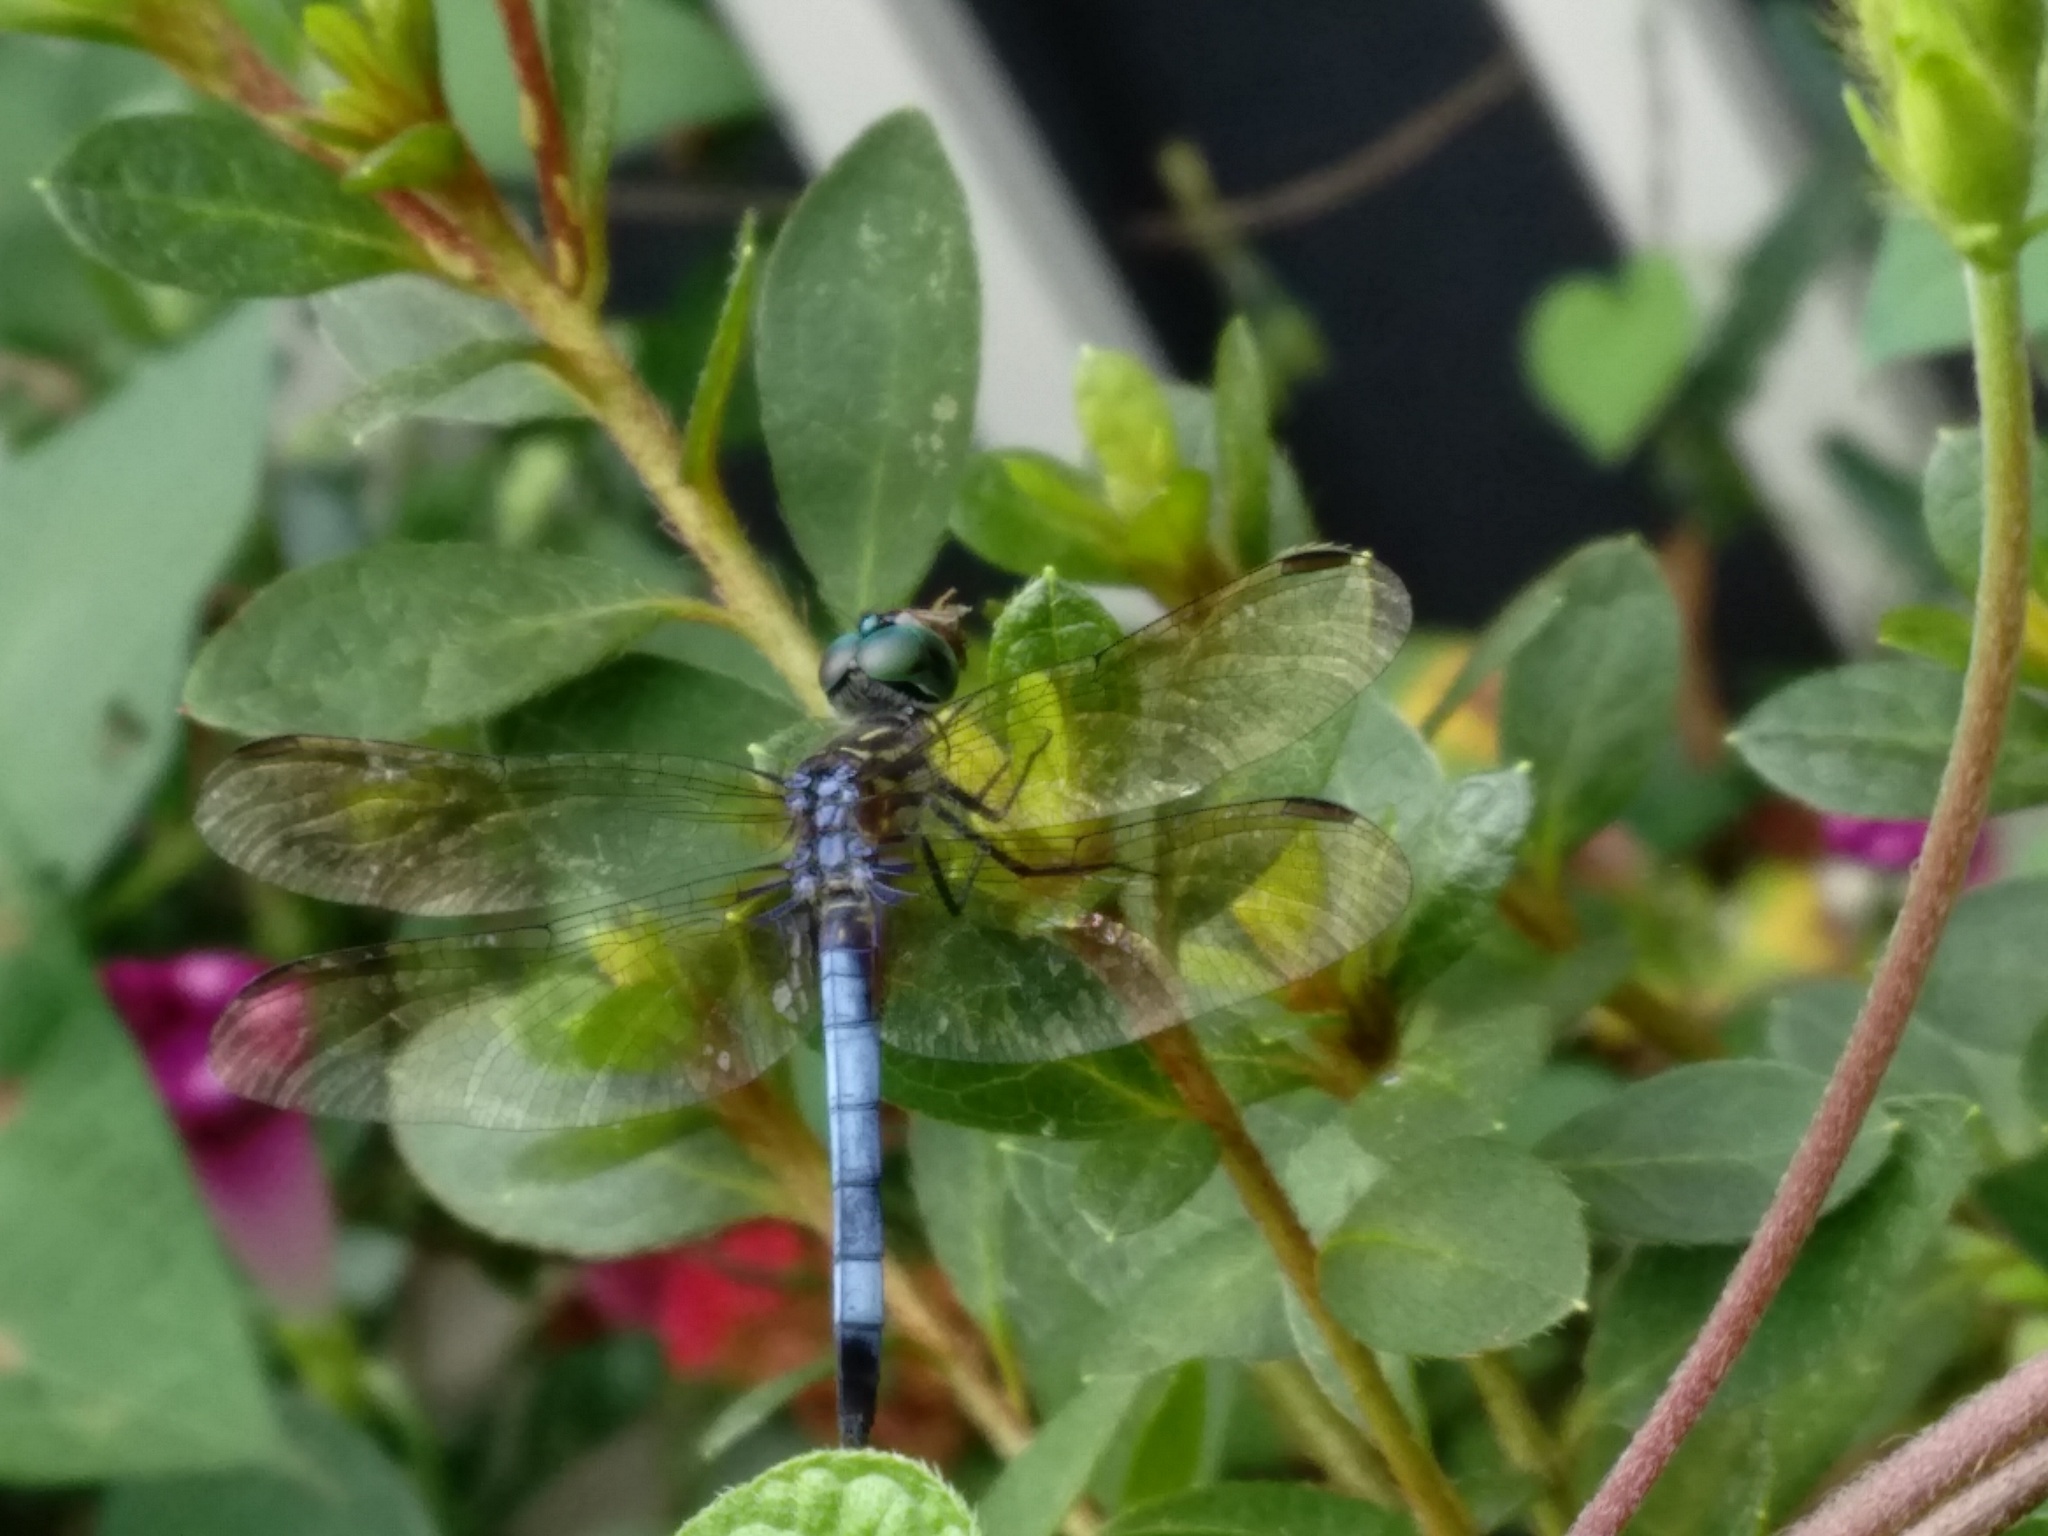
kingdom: Animalia
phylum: Arthropoda
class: Insecta
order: Odonata
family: Libellulidae
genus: Pachydiplax
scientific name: Pachydiplax longipennis
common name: Blue dasher
